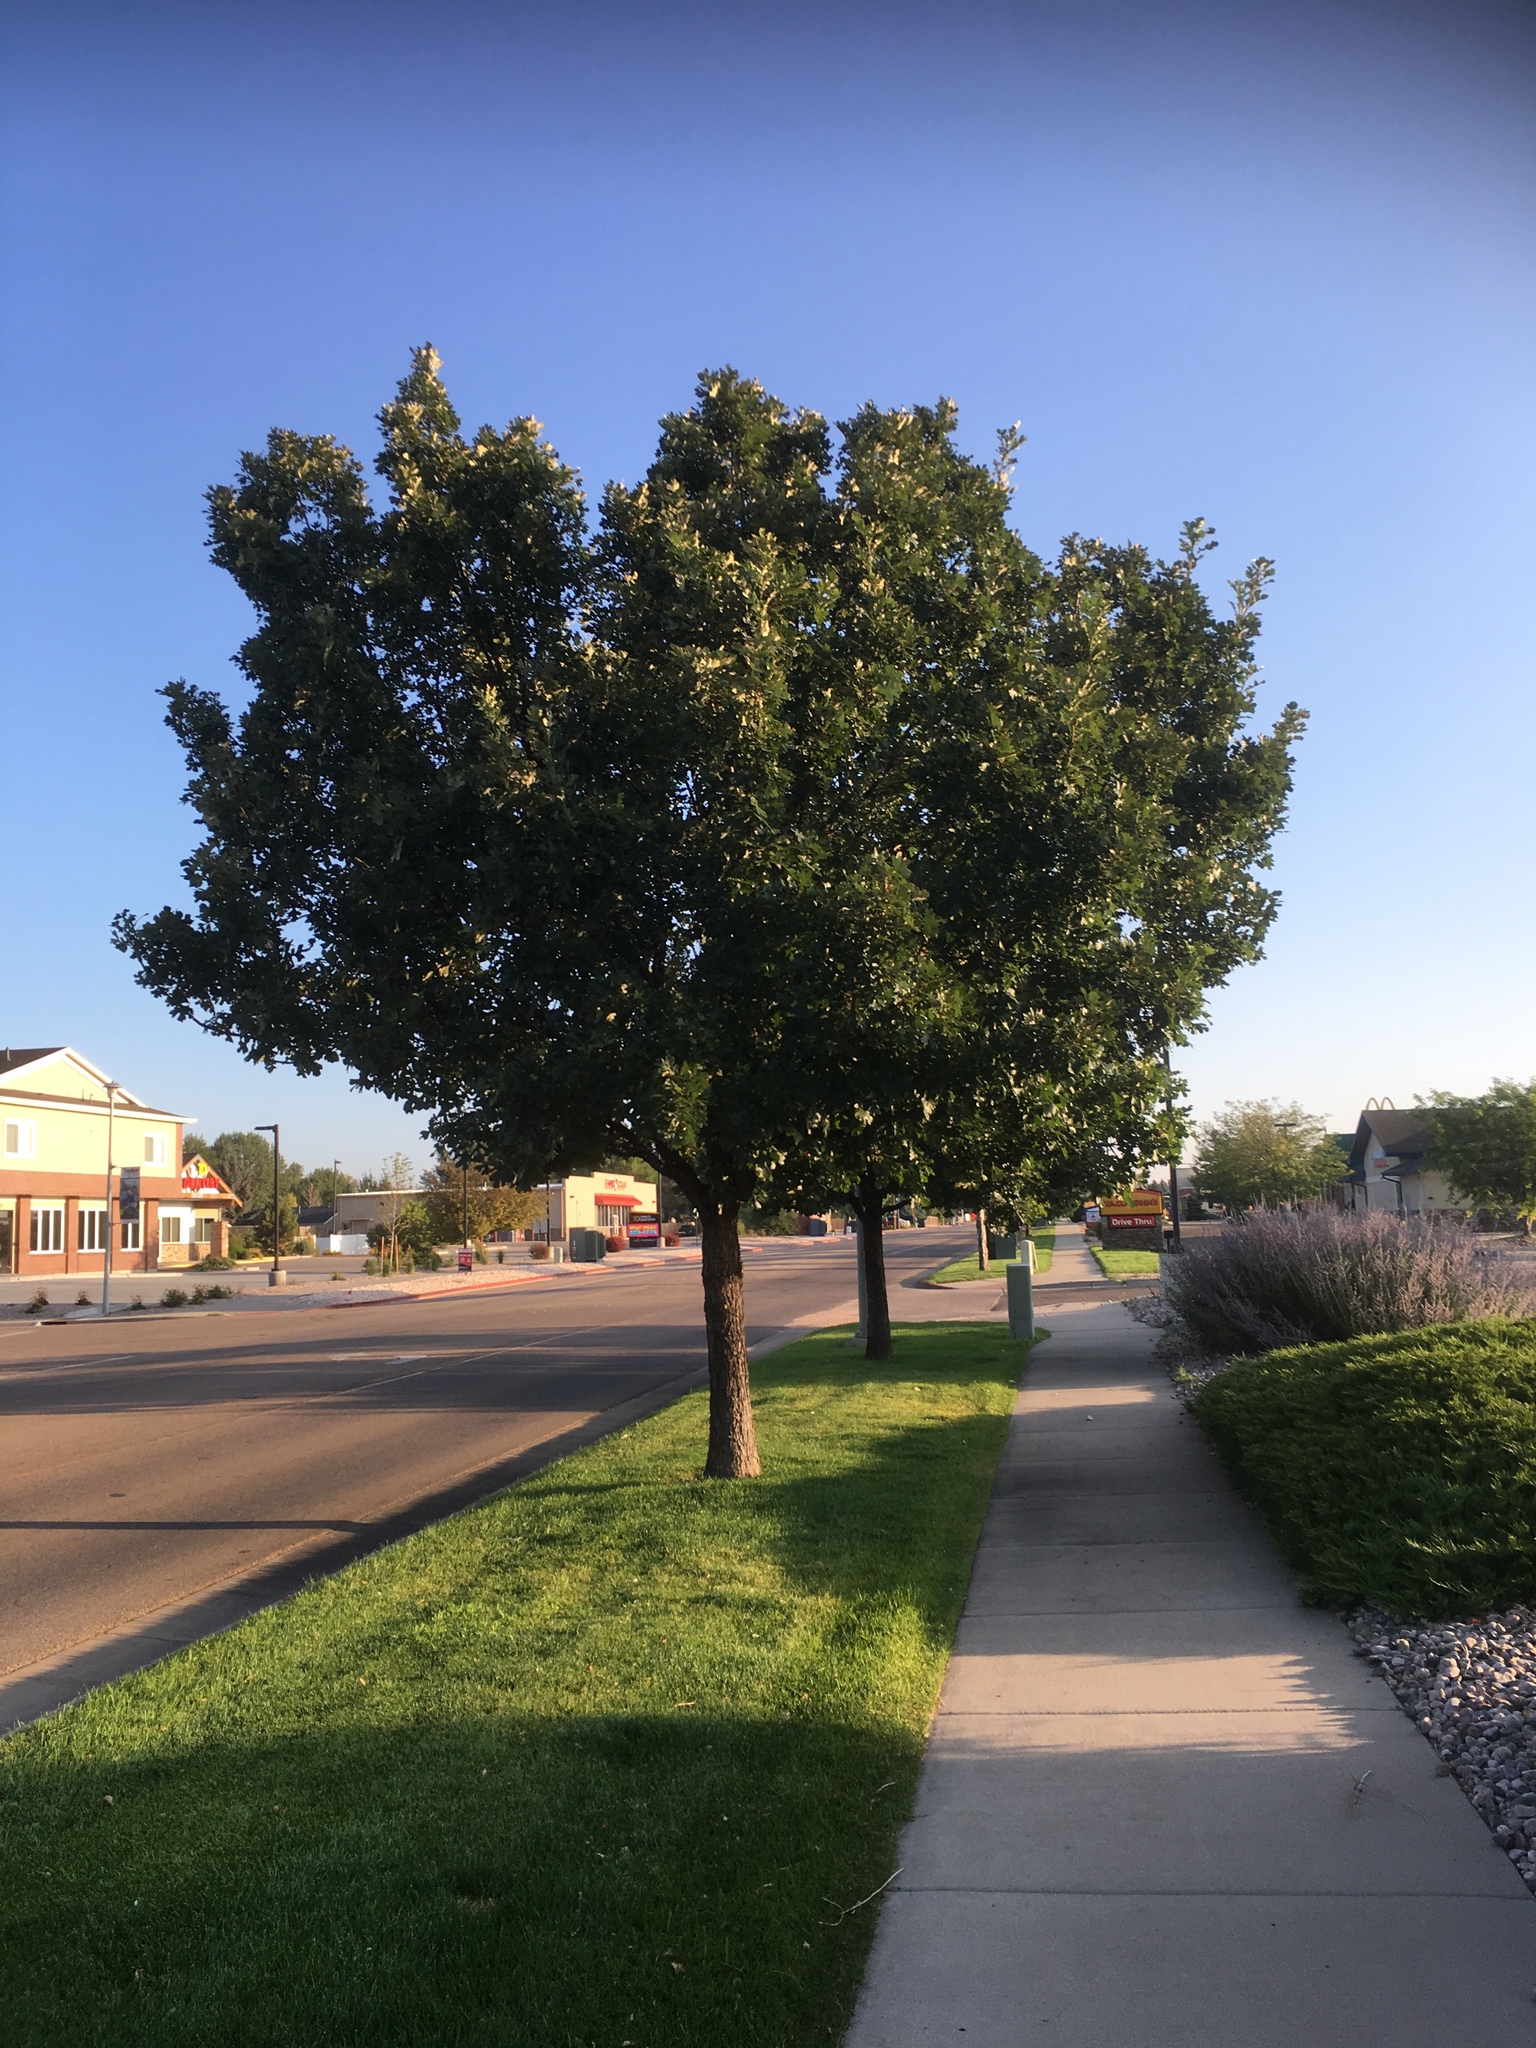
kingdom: Plantae
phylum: Tracheophyta
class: Magnoliopsida
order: Fagales
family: Fagaceae
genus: Quercus
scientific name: Quercus macrocarpa
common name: Bur oak
